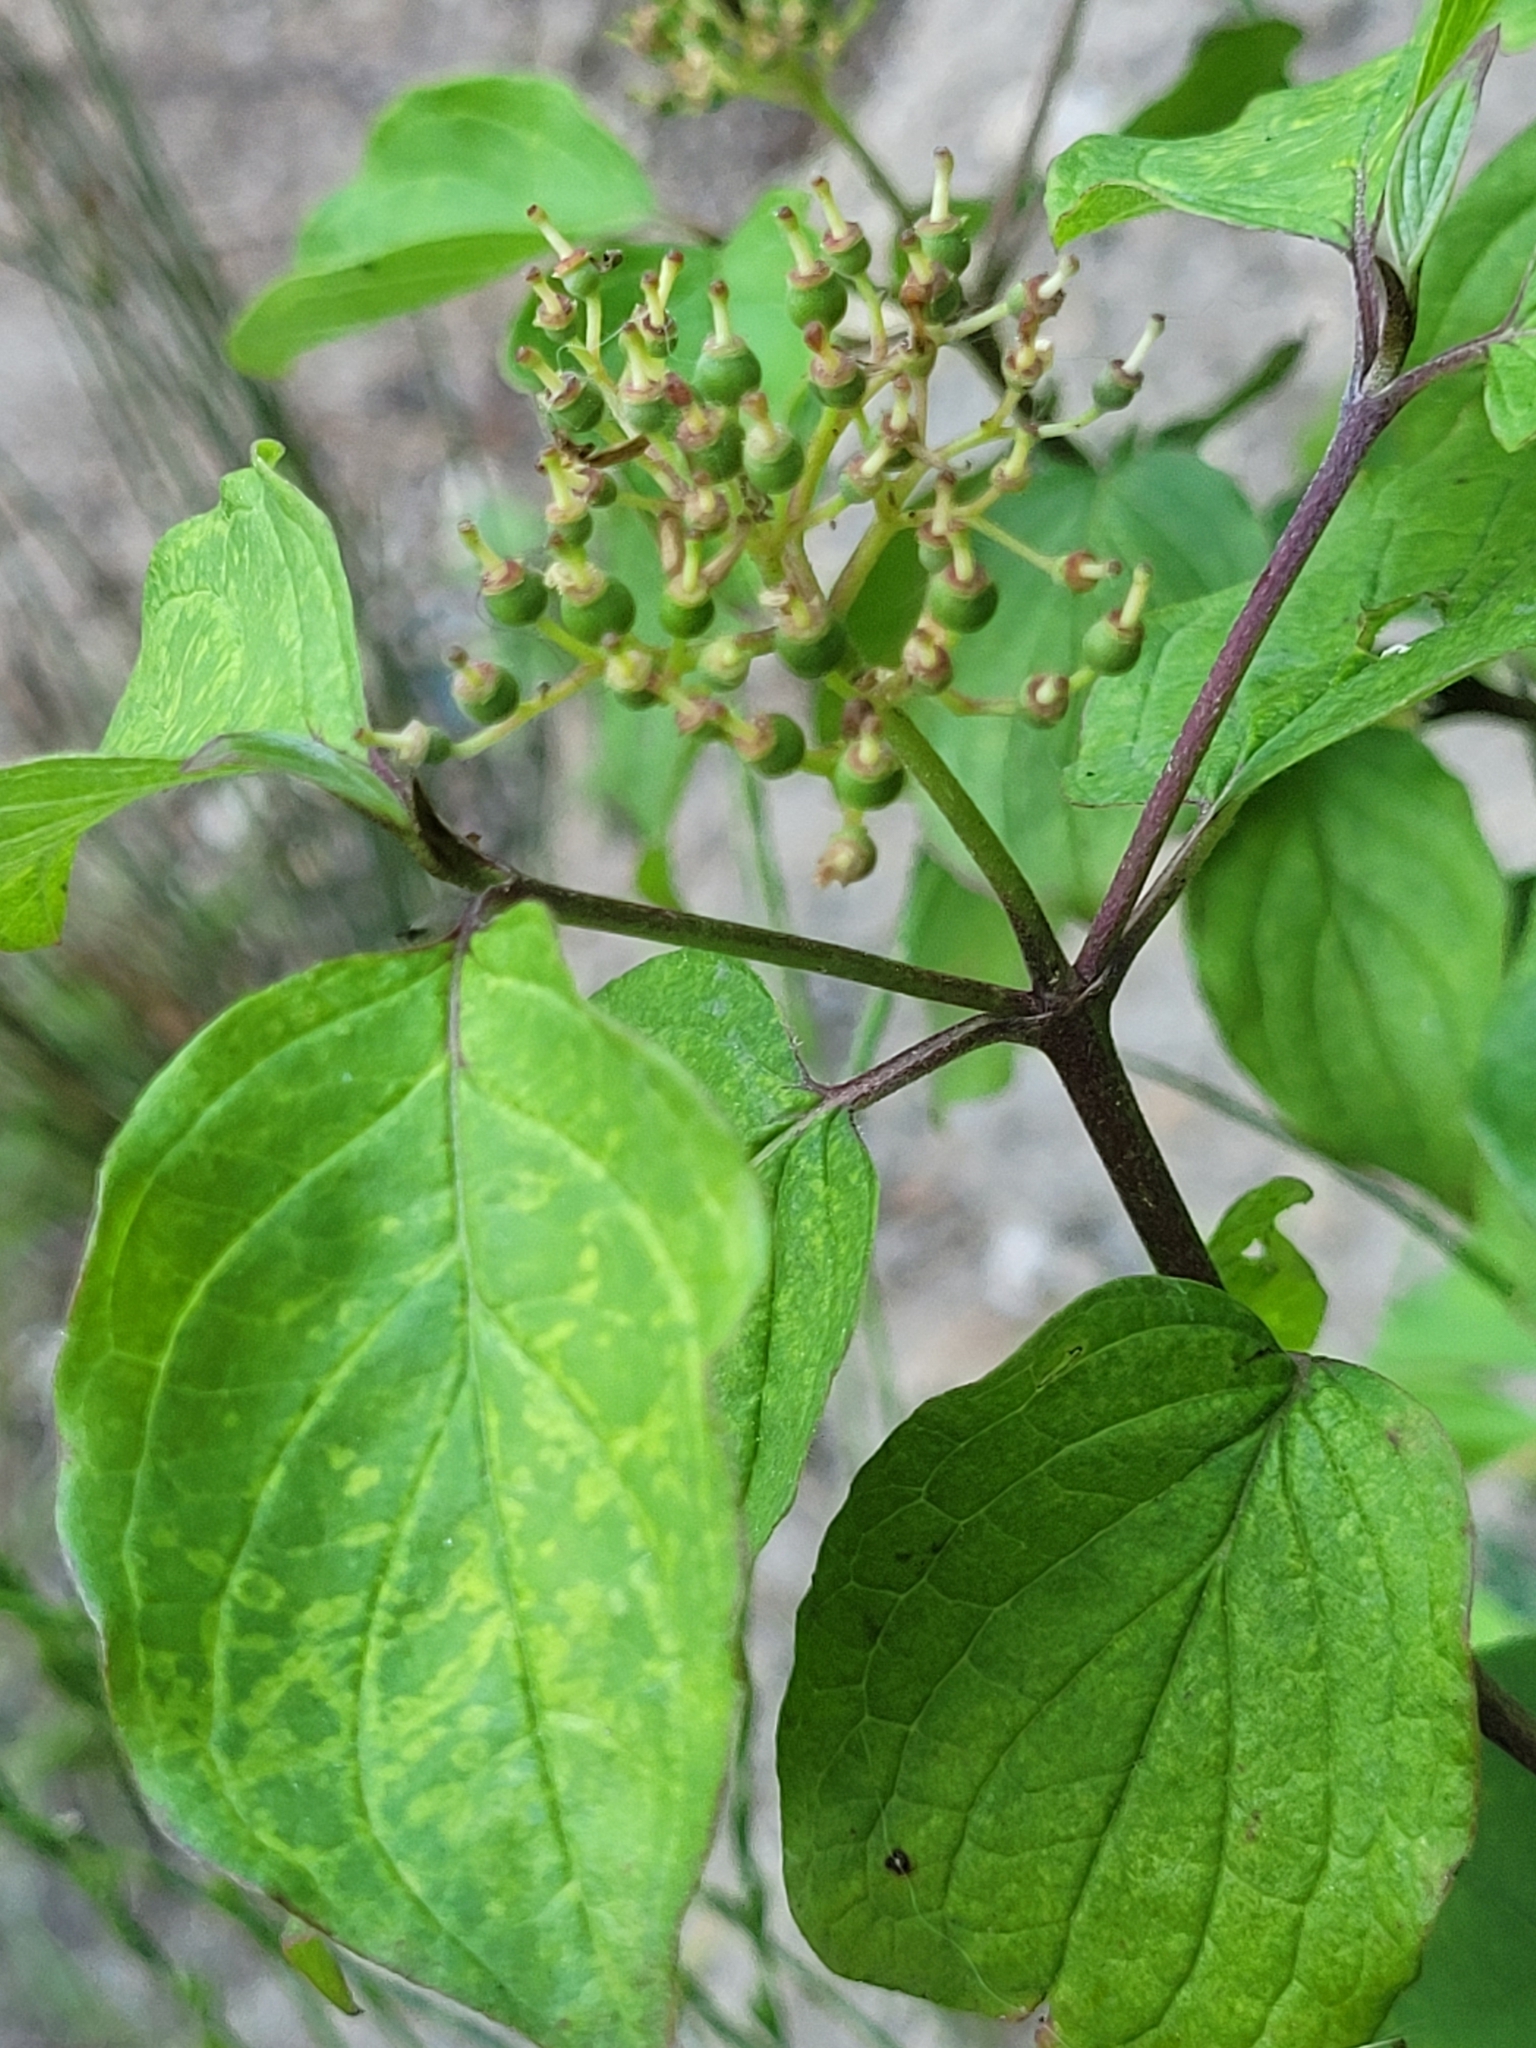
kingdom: Plantae
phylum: Tracheophyta
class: Magnoliopsida
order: Cornales
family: Cornaceae
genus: Cornus
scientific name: Cornus sanguinea
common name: Dogwood
